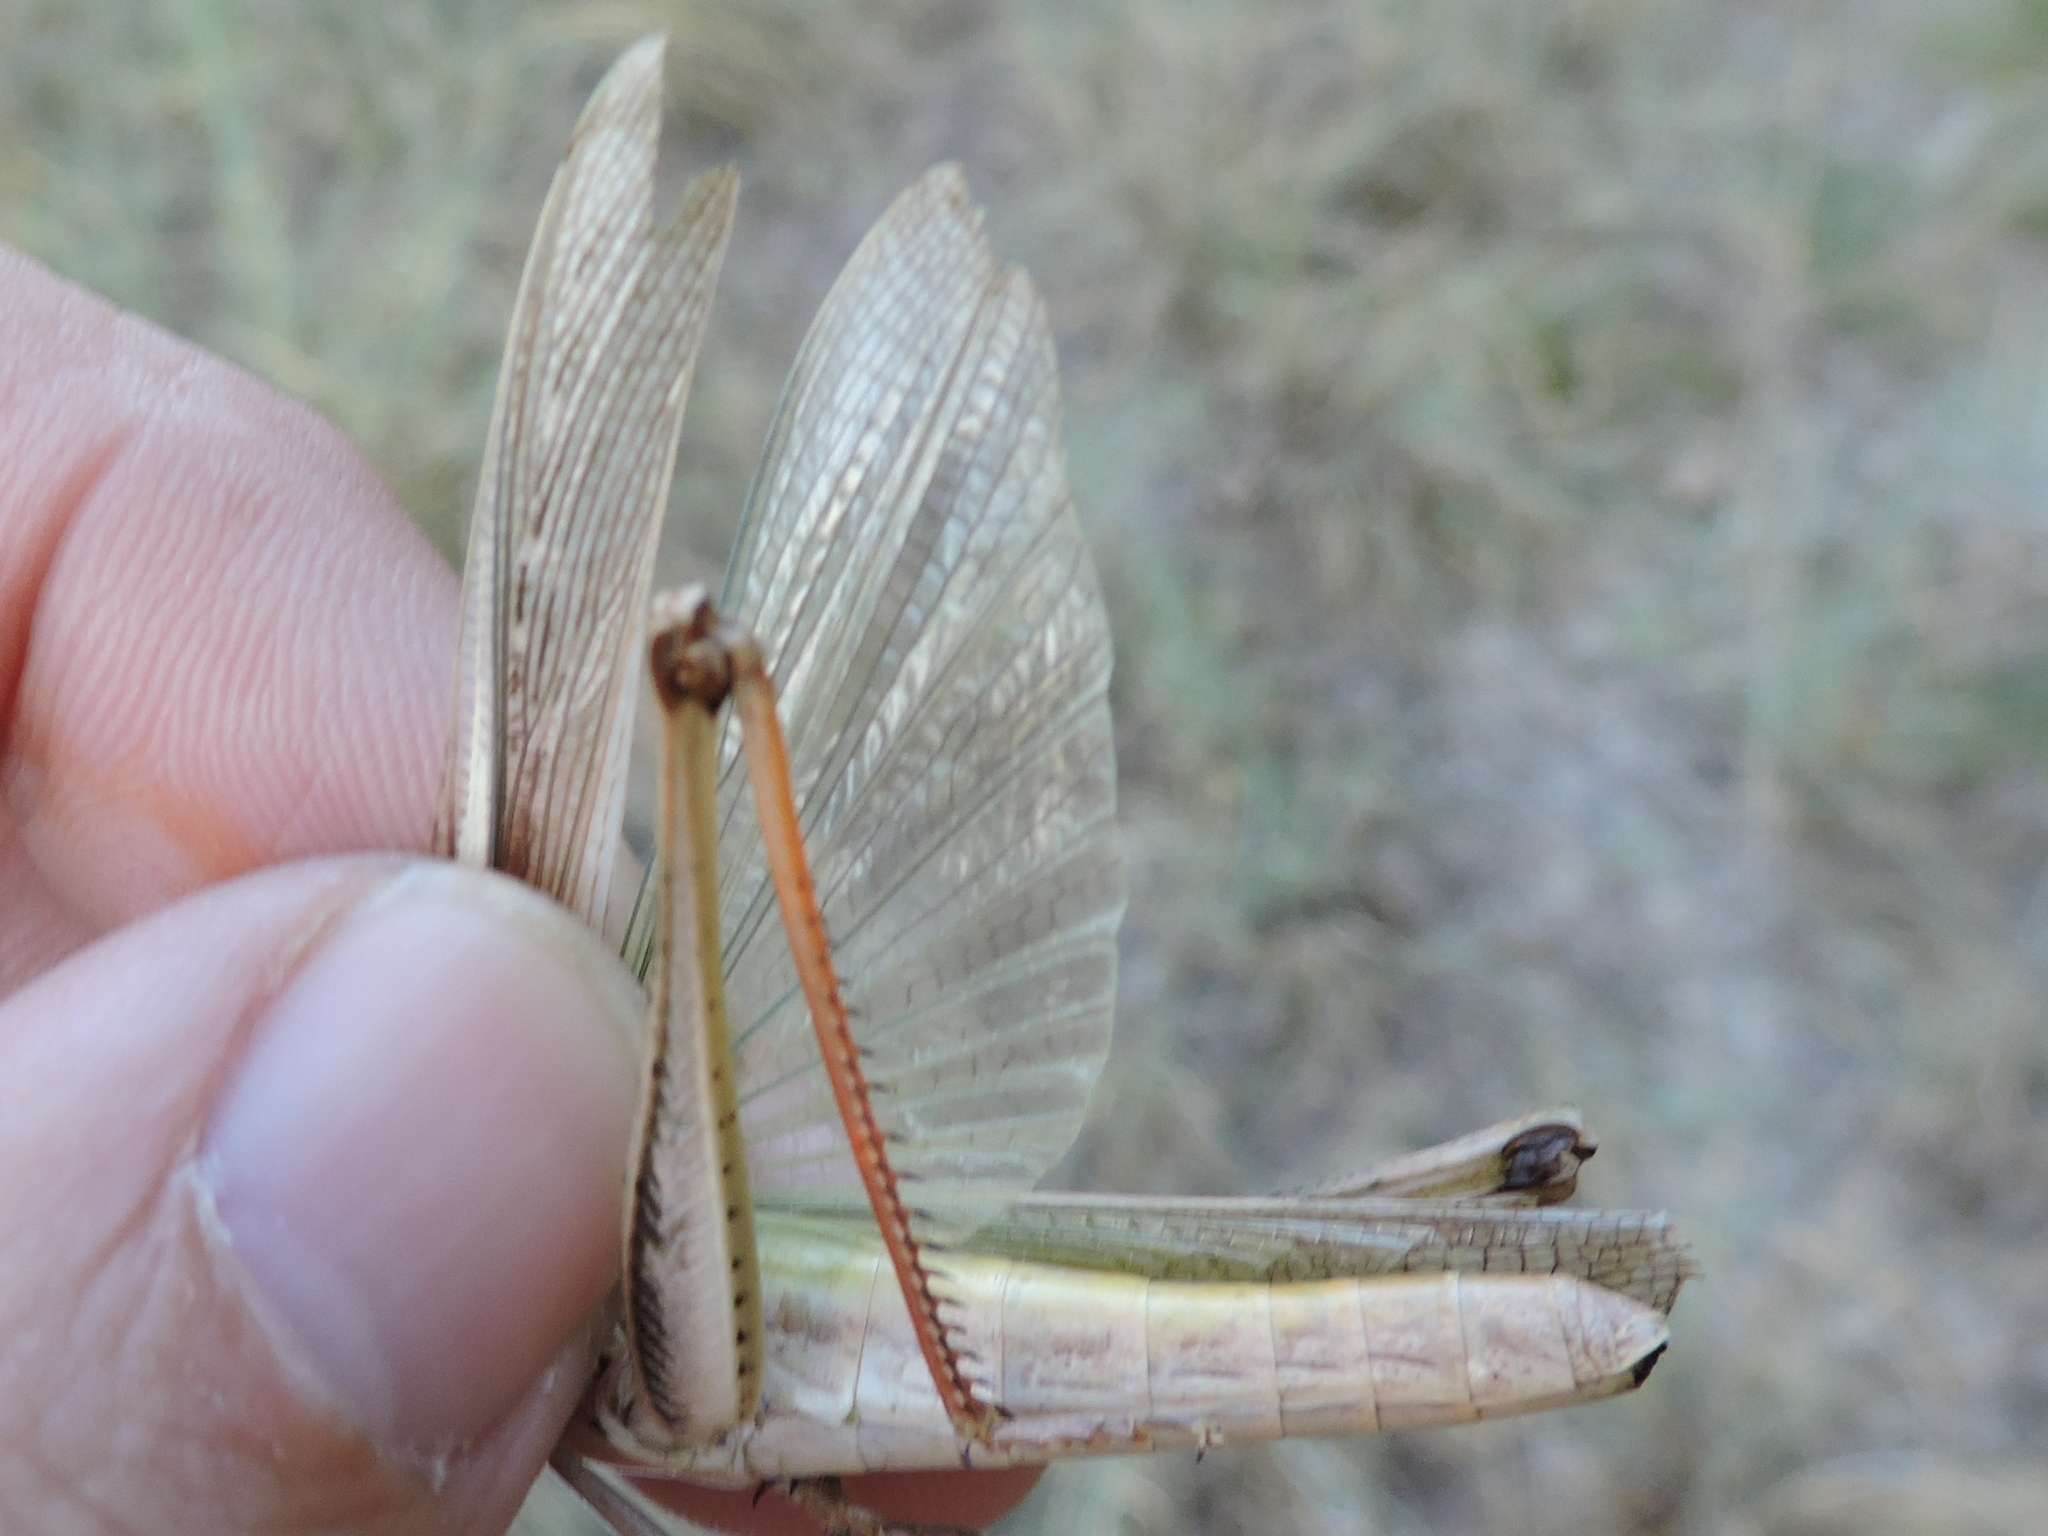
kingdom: Animalia
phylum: Arthropoda
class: Insecta
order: Orthoptera
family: Acrididae
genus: Mermiria
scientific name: Mermiria bivittata
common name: Two-striped mermiria grasshopper
